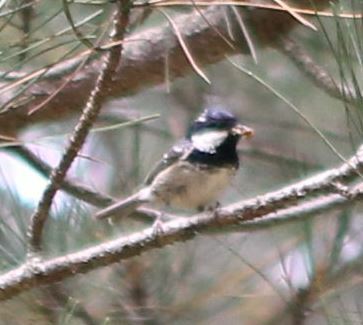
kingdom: Animalia
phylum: Chordata
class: Aves
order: Passeriformes
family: Paridae
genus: Periparus
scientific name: Periparus ater
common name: Coal tit
